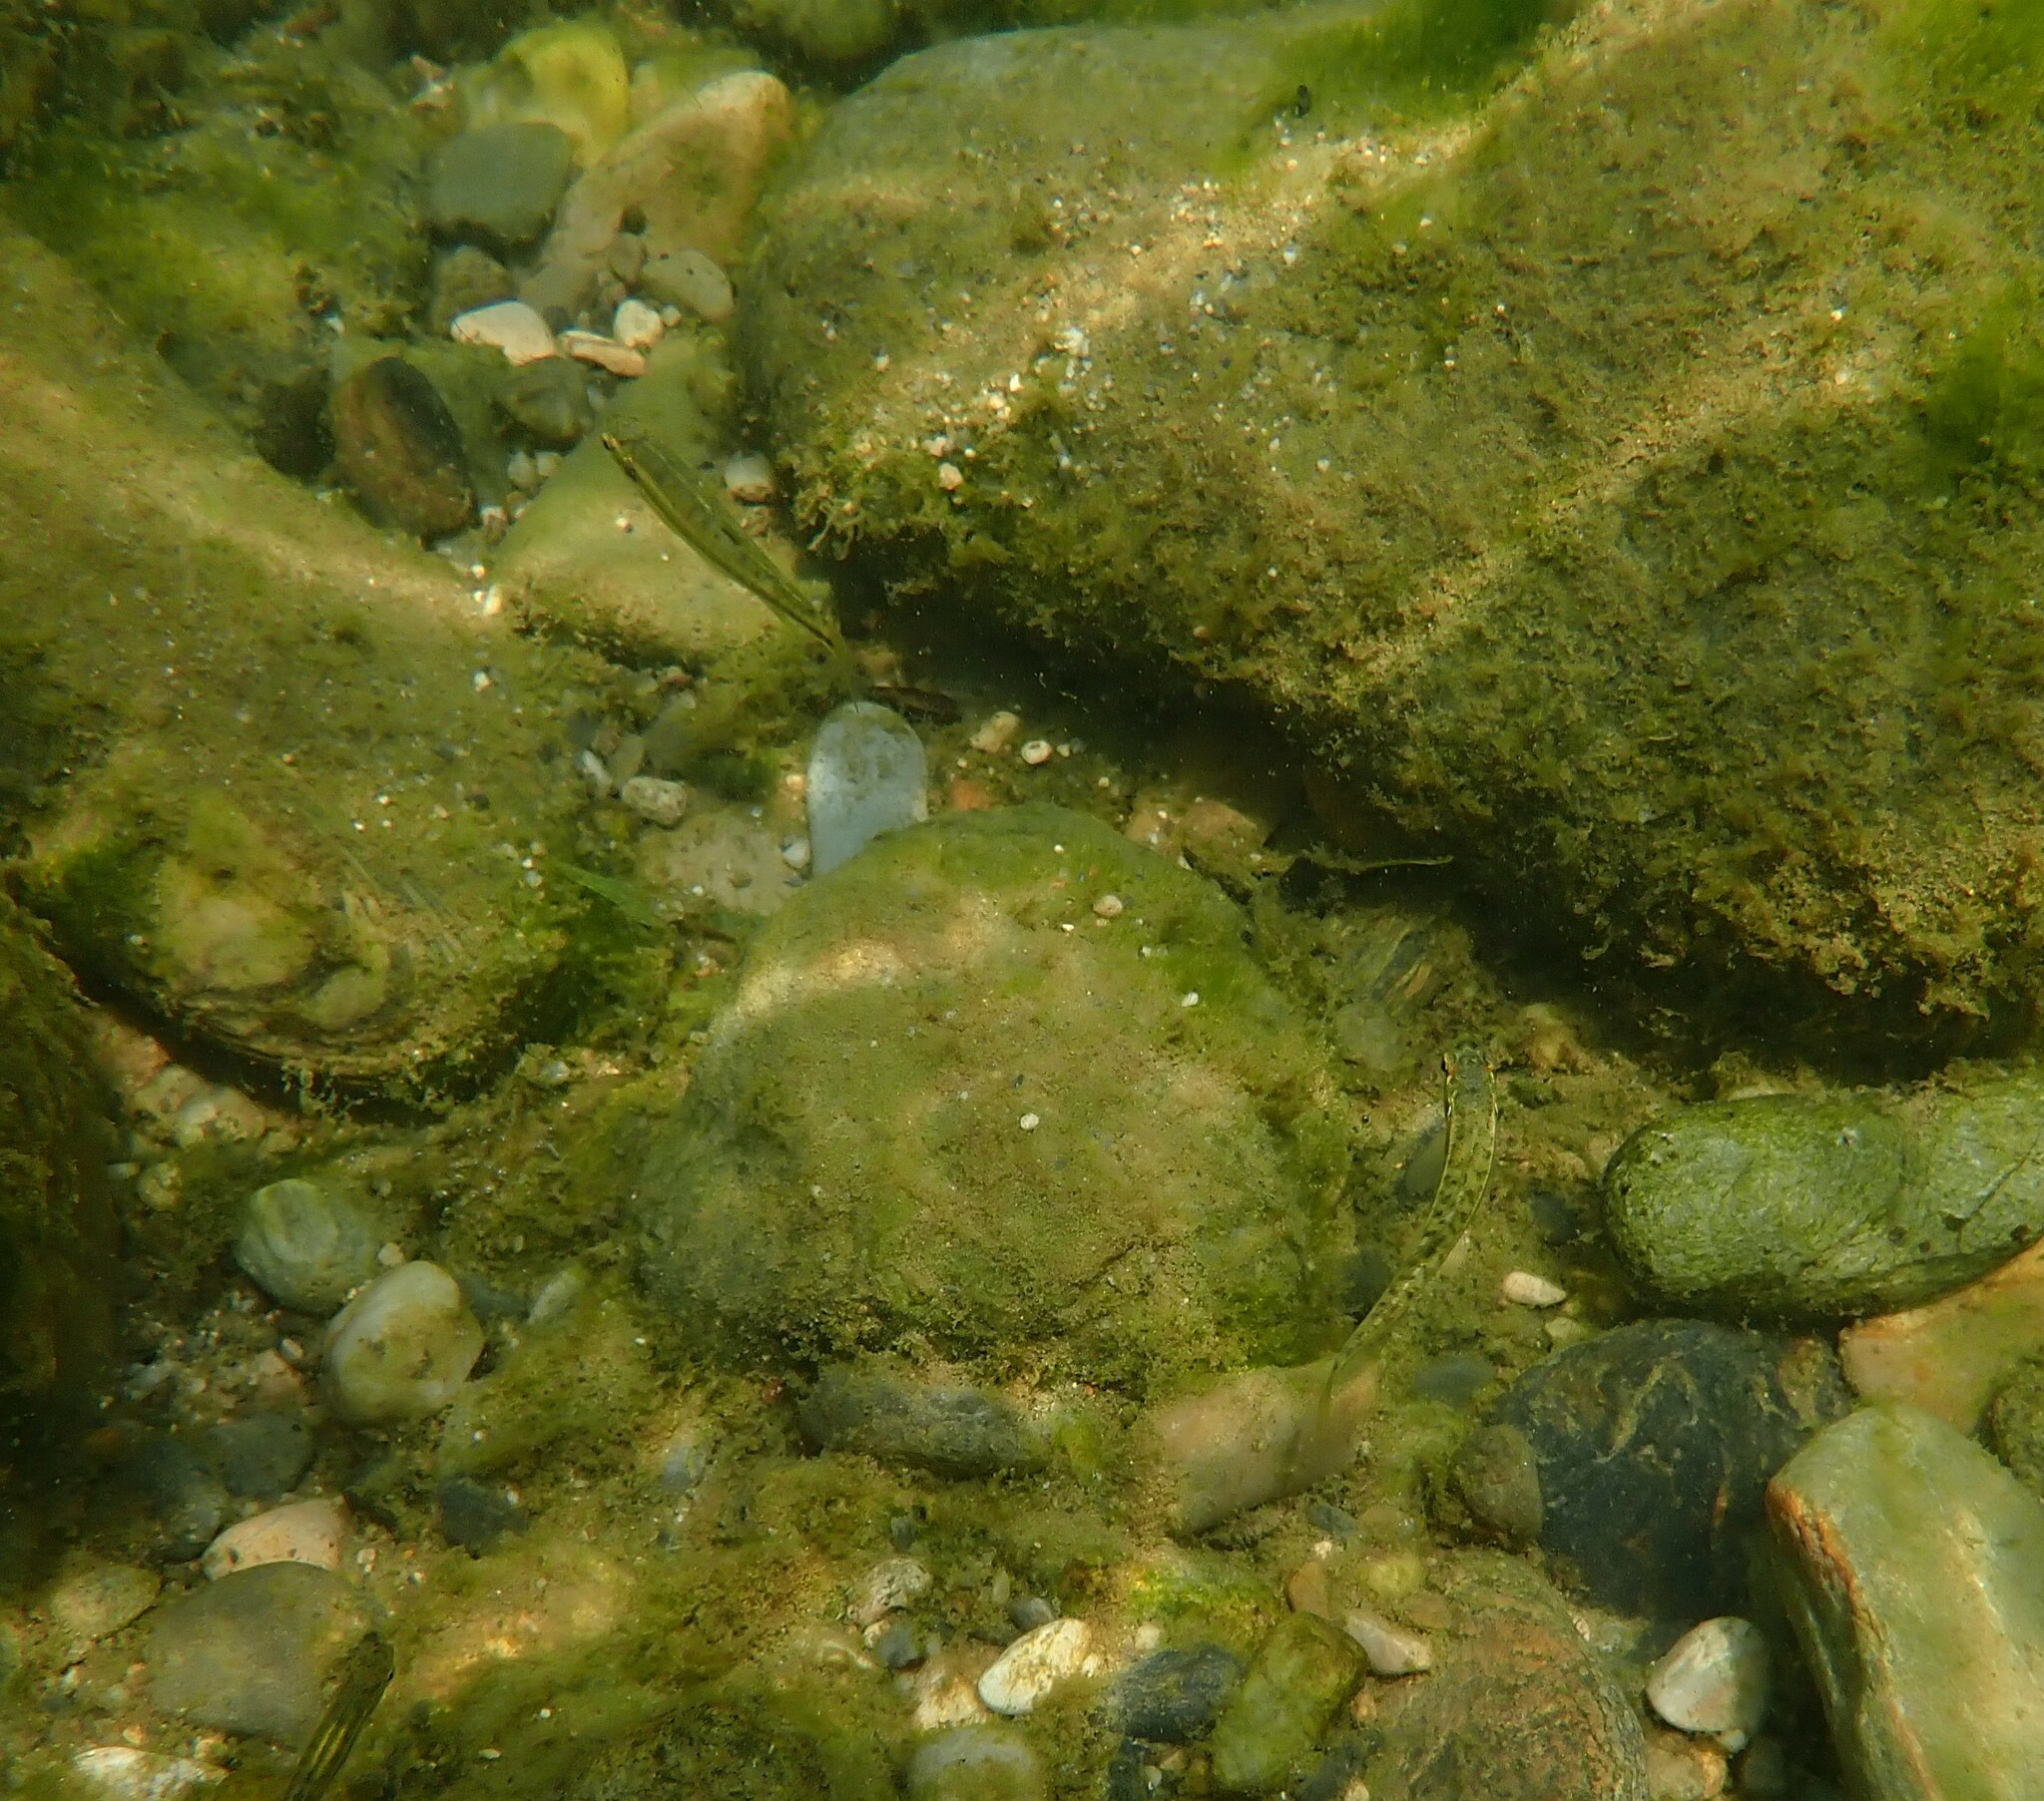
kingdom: Animalia
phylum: Chordata
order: Cypriniformes
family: Cyprinidae
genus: Phoxinus
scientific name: Phoxinus septimaniae
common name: Languedoc minnow
